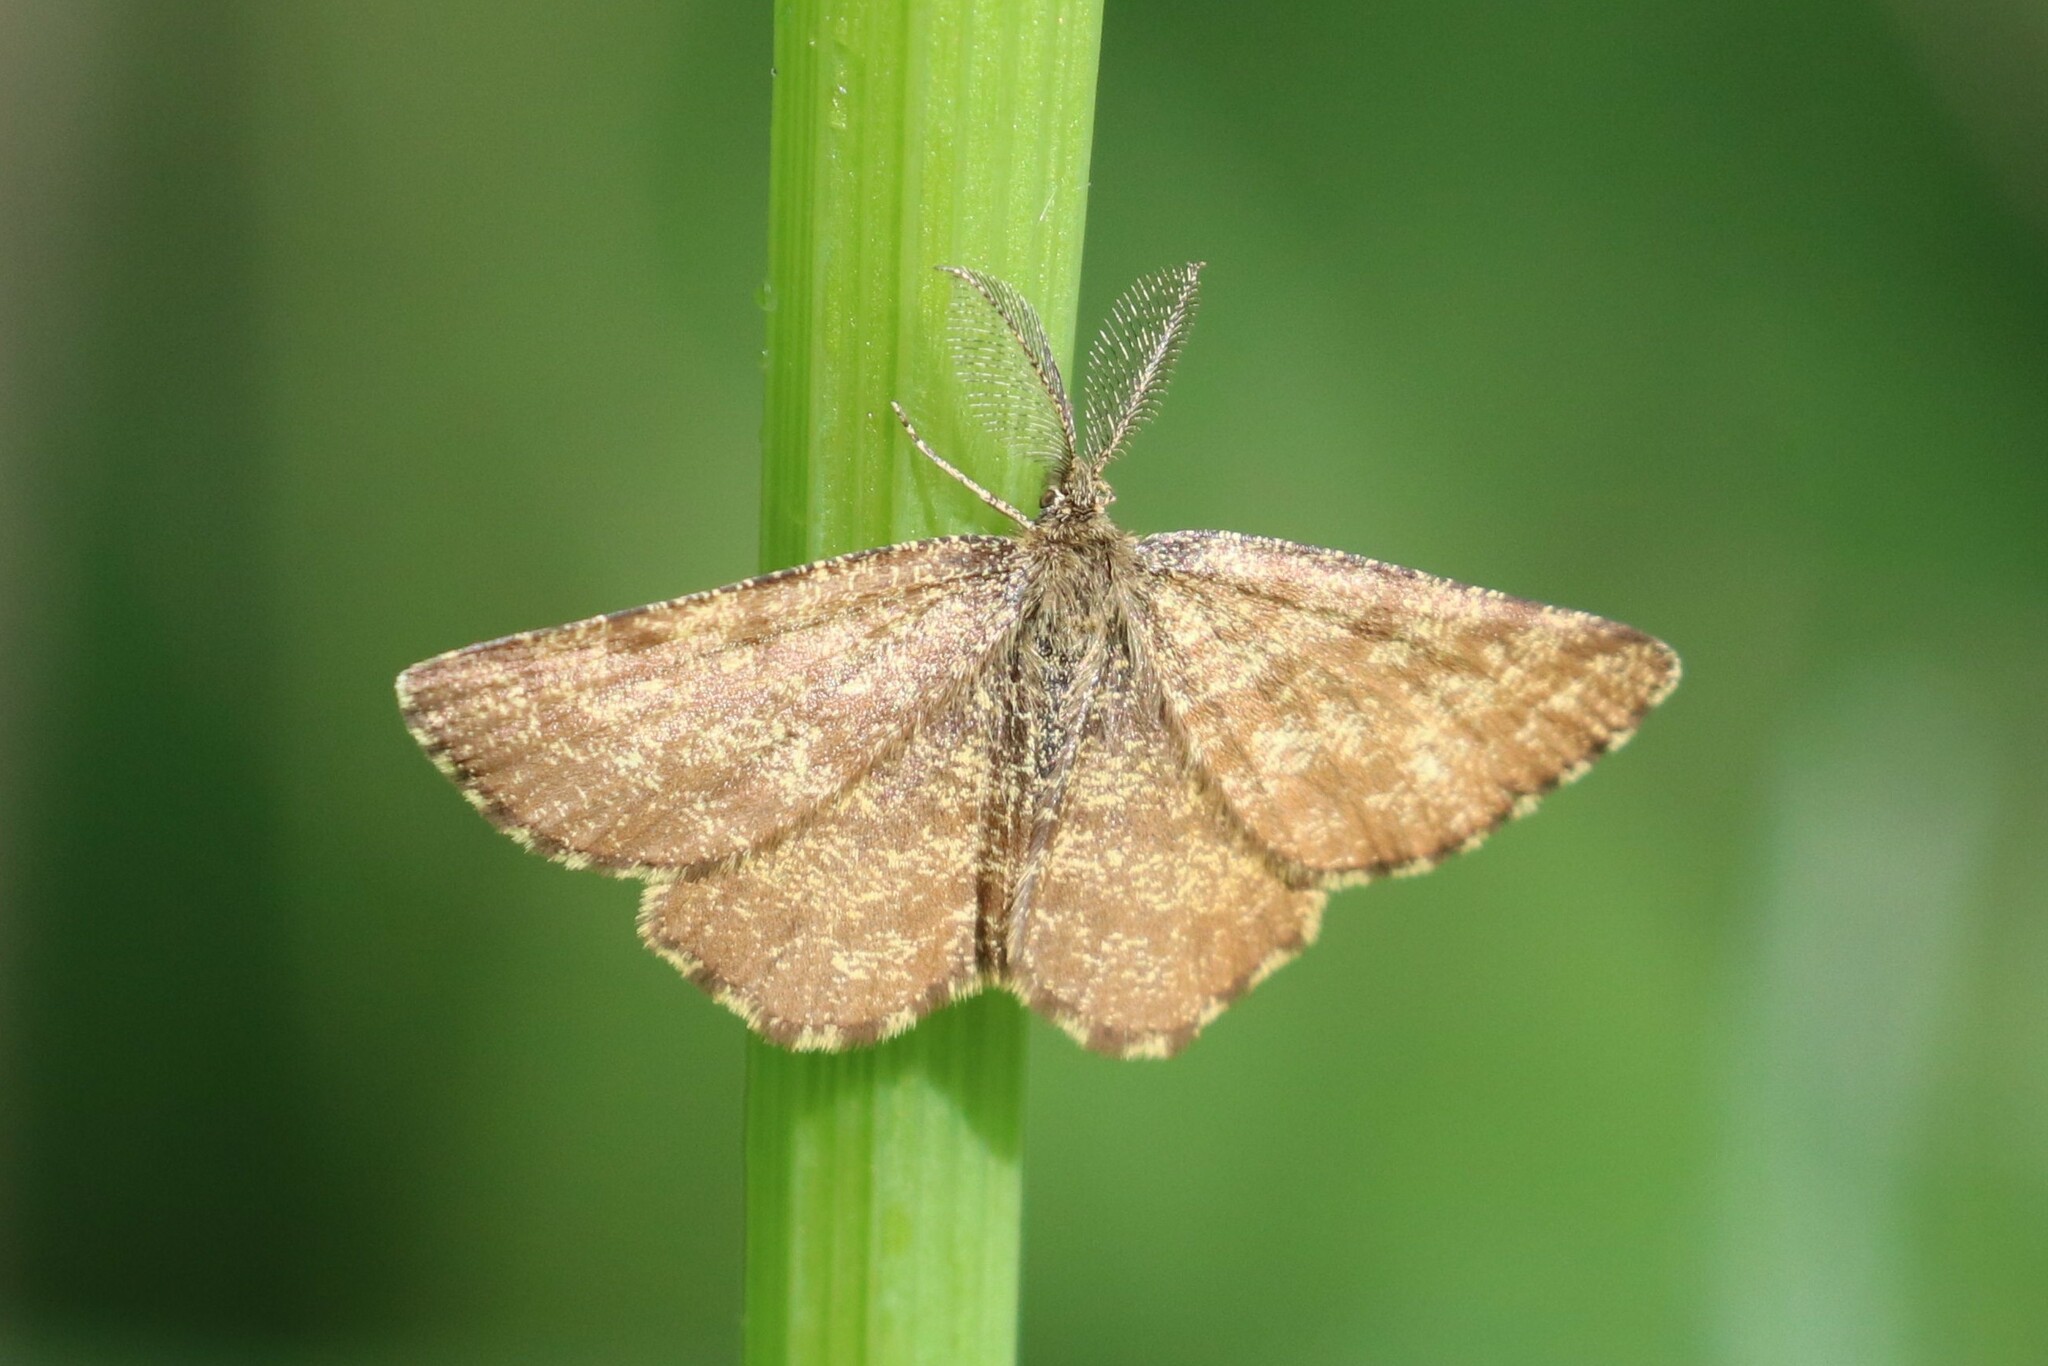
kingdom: Animalia
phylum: Arthropoda
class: Insecta
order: Lepidoptera
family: Geometridae
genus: Ematurga
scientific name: Ematurga atomaria
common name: Common heath
